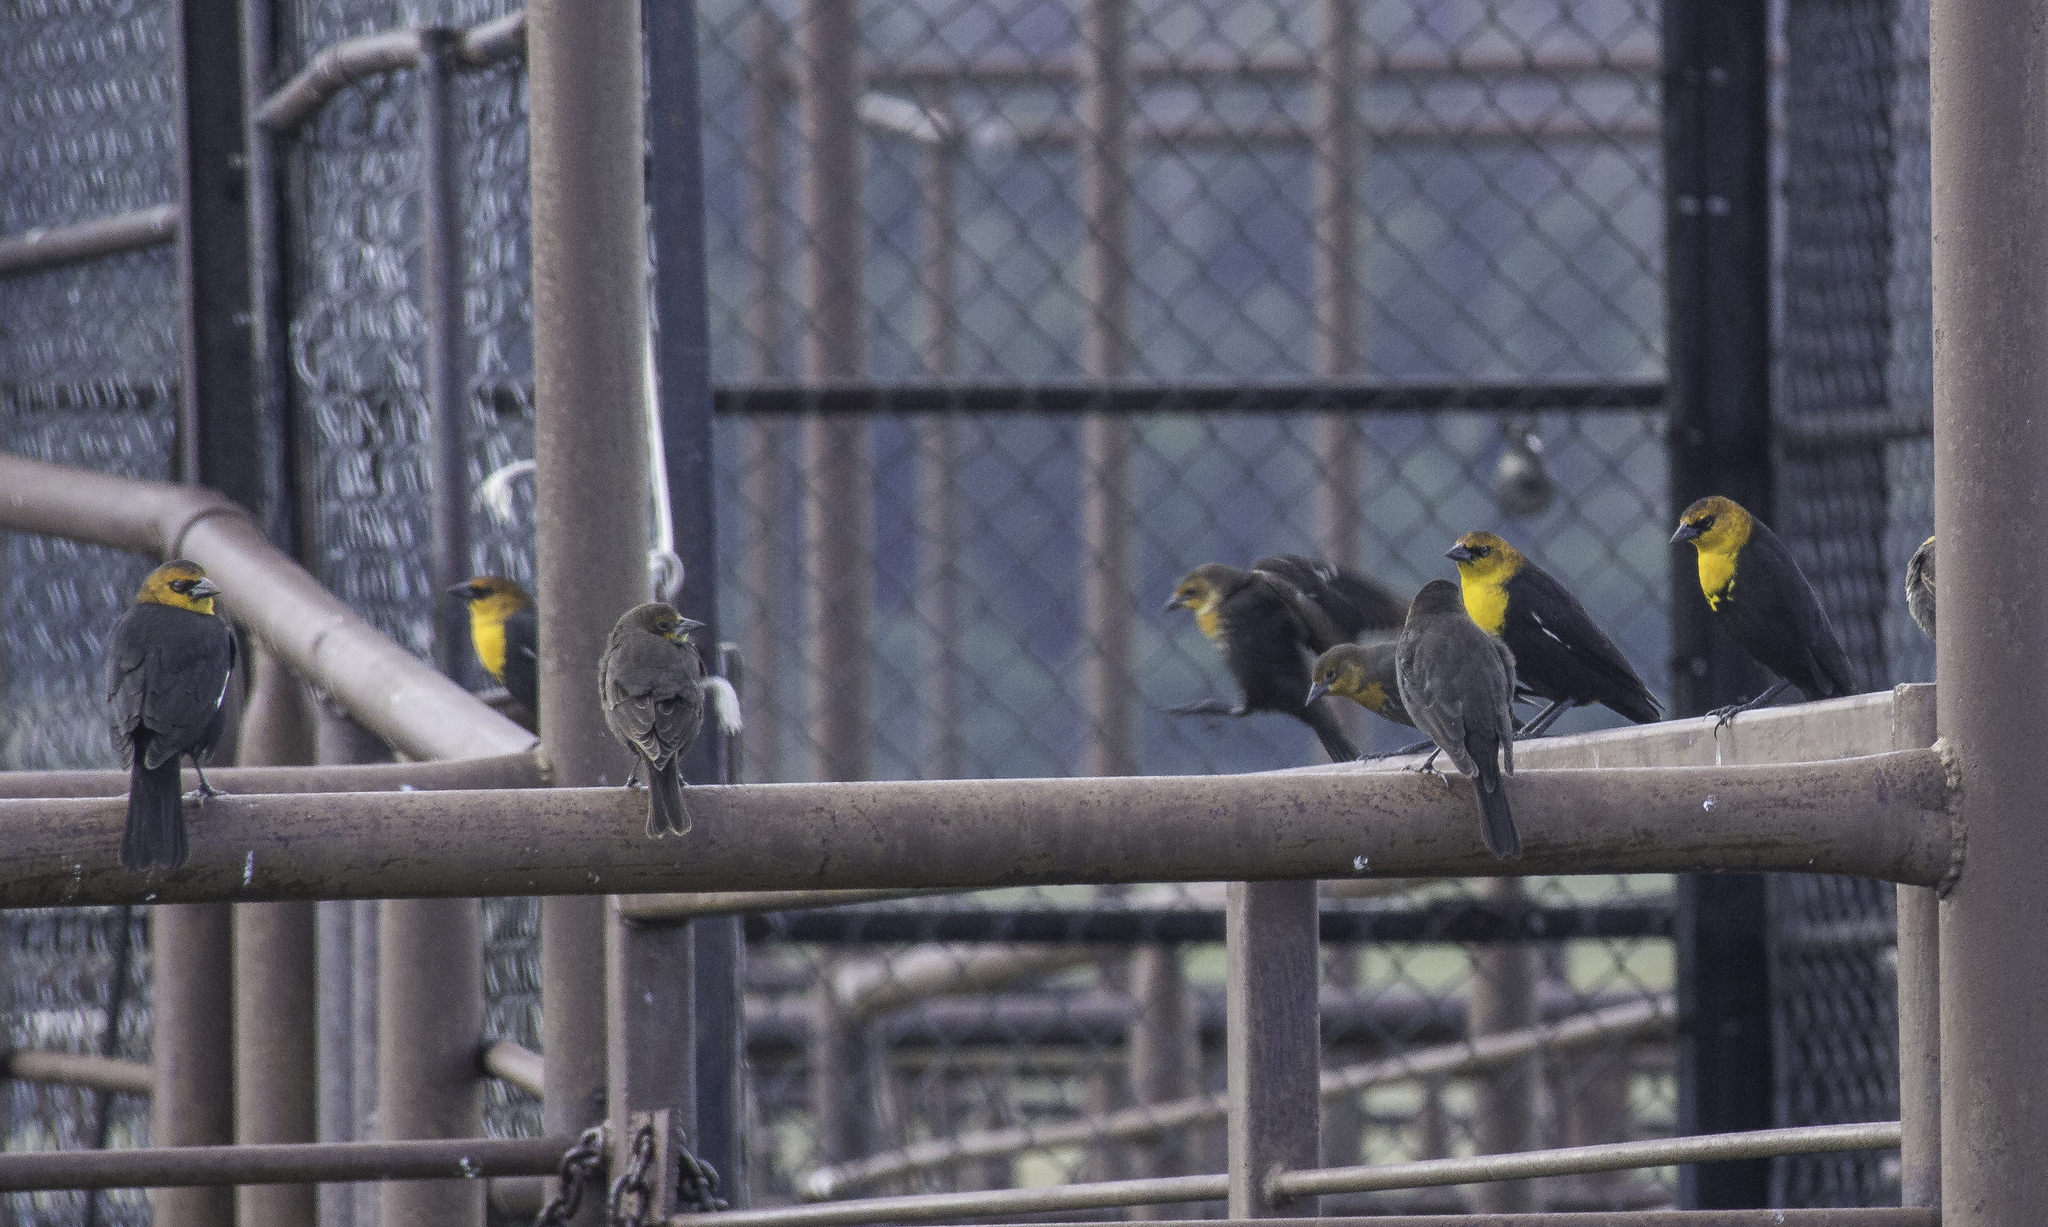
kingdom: Animalia
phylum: Chordata
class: Aves
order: Passeriformes
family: Icteridae
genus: Xanthocephalus
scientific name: Xanthocephalus xanthocephalus
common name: Yellow-headed blackbird
